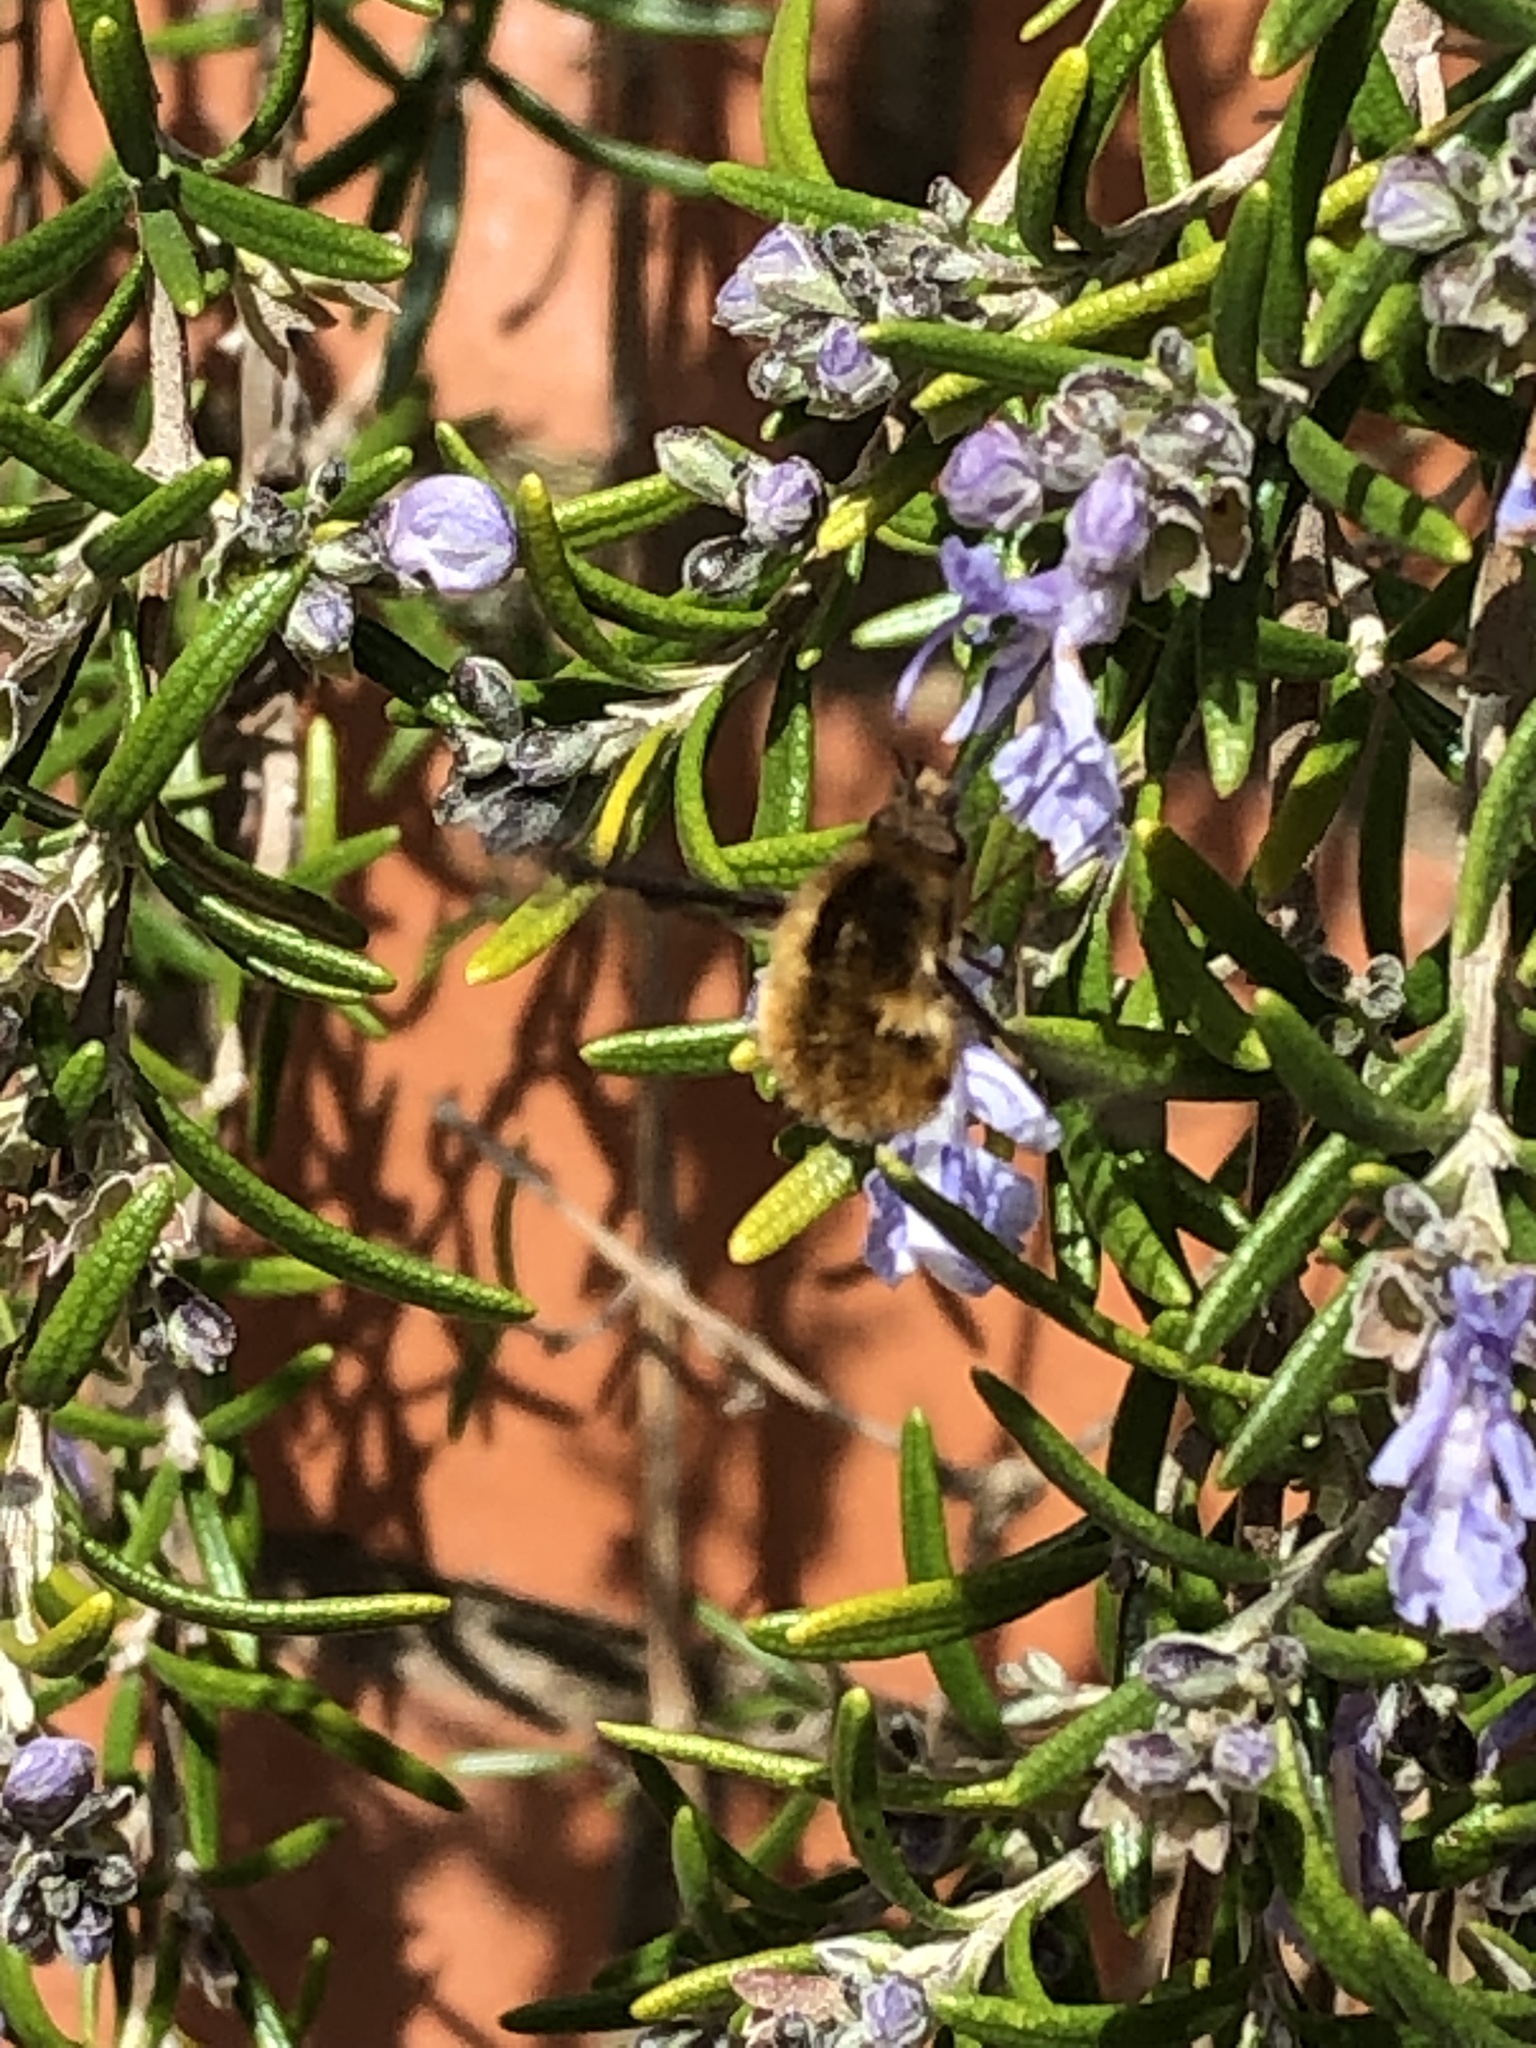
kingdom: Animalia
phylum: Arthropoda
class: Insecta
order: Diptera
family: Bombyliidae
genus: Bombylius
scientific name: Bombylius major
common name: Bee fly
